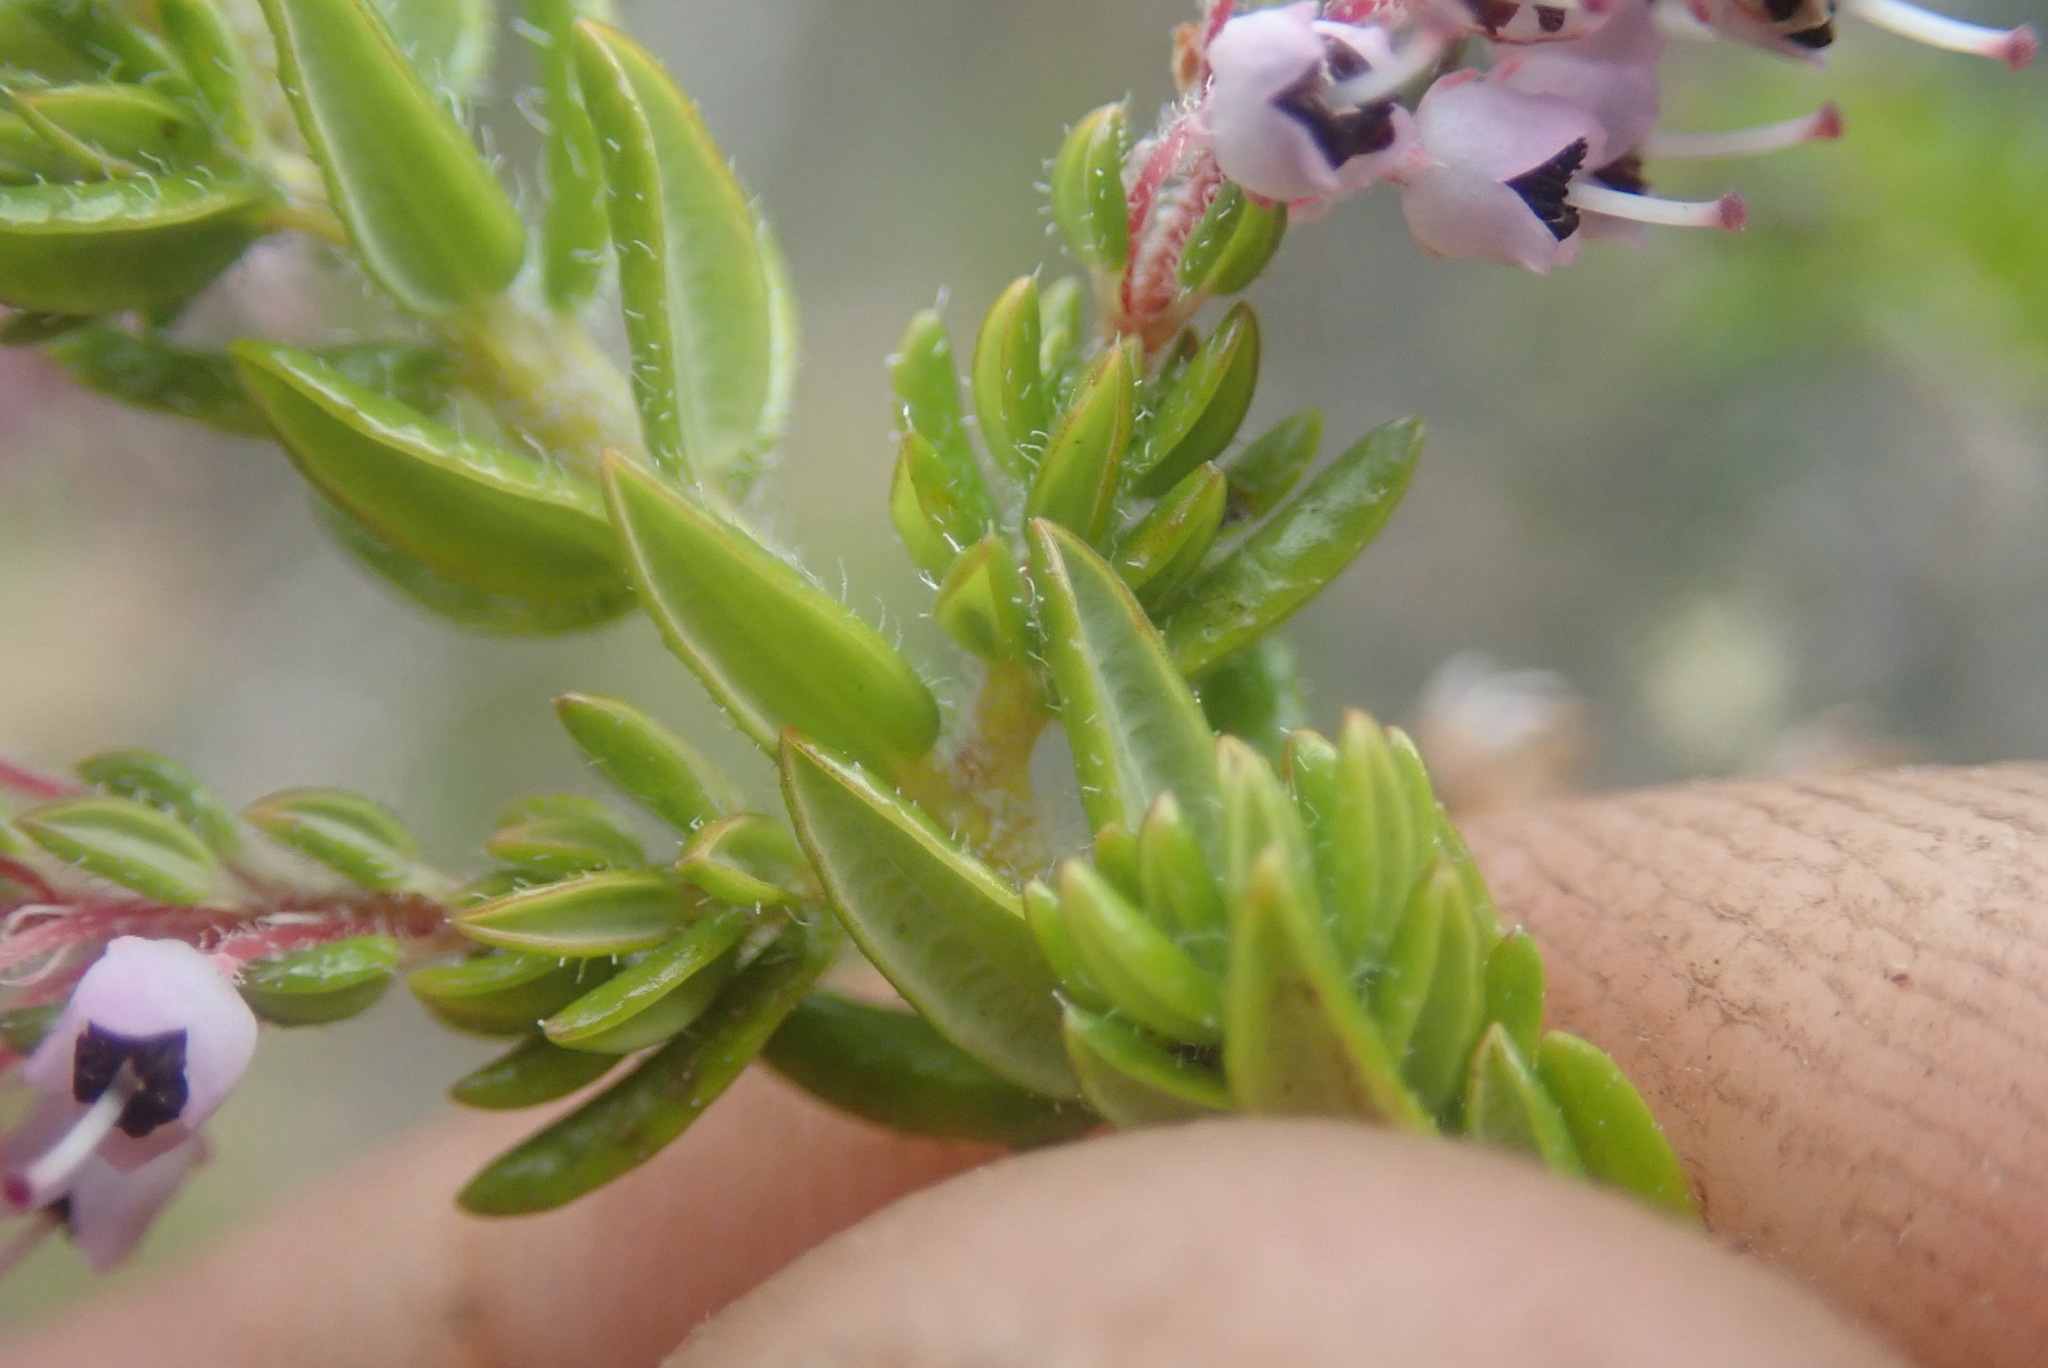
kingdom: Plantae
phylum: Tracheophyta
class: Magnoliopsida
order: Ericales
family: Ericaceae
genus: Erica
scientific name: Erica revoluta
